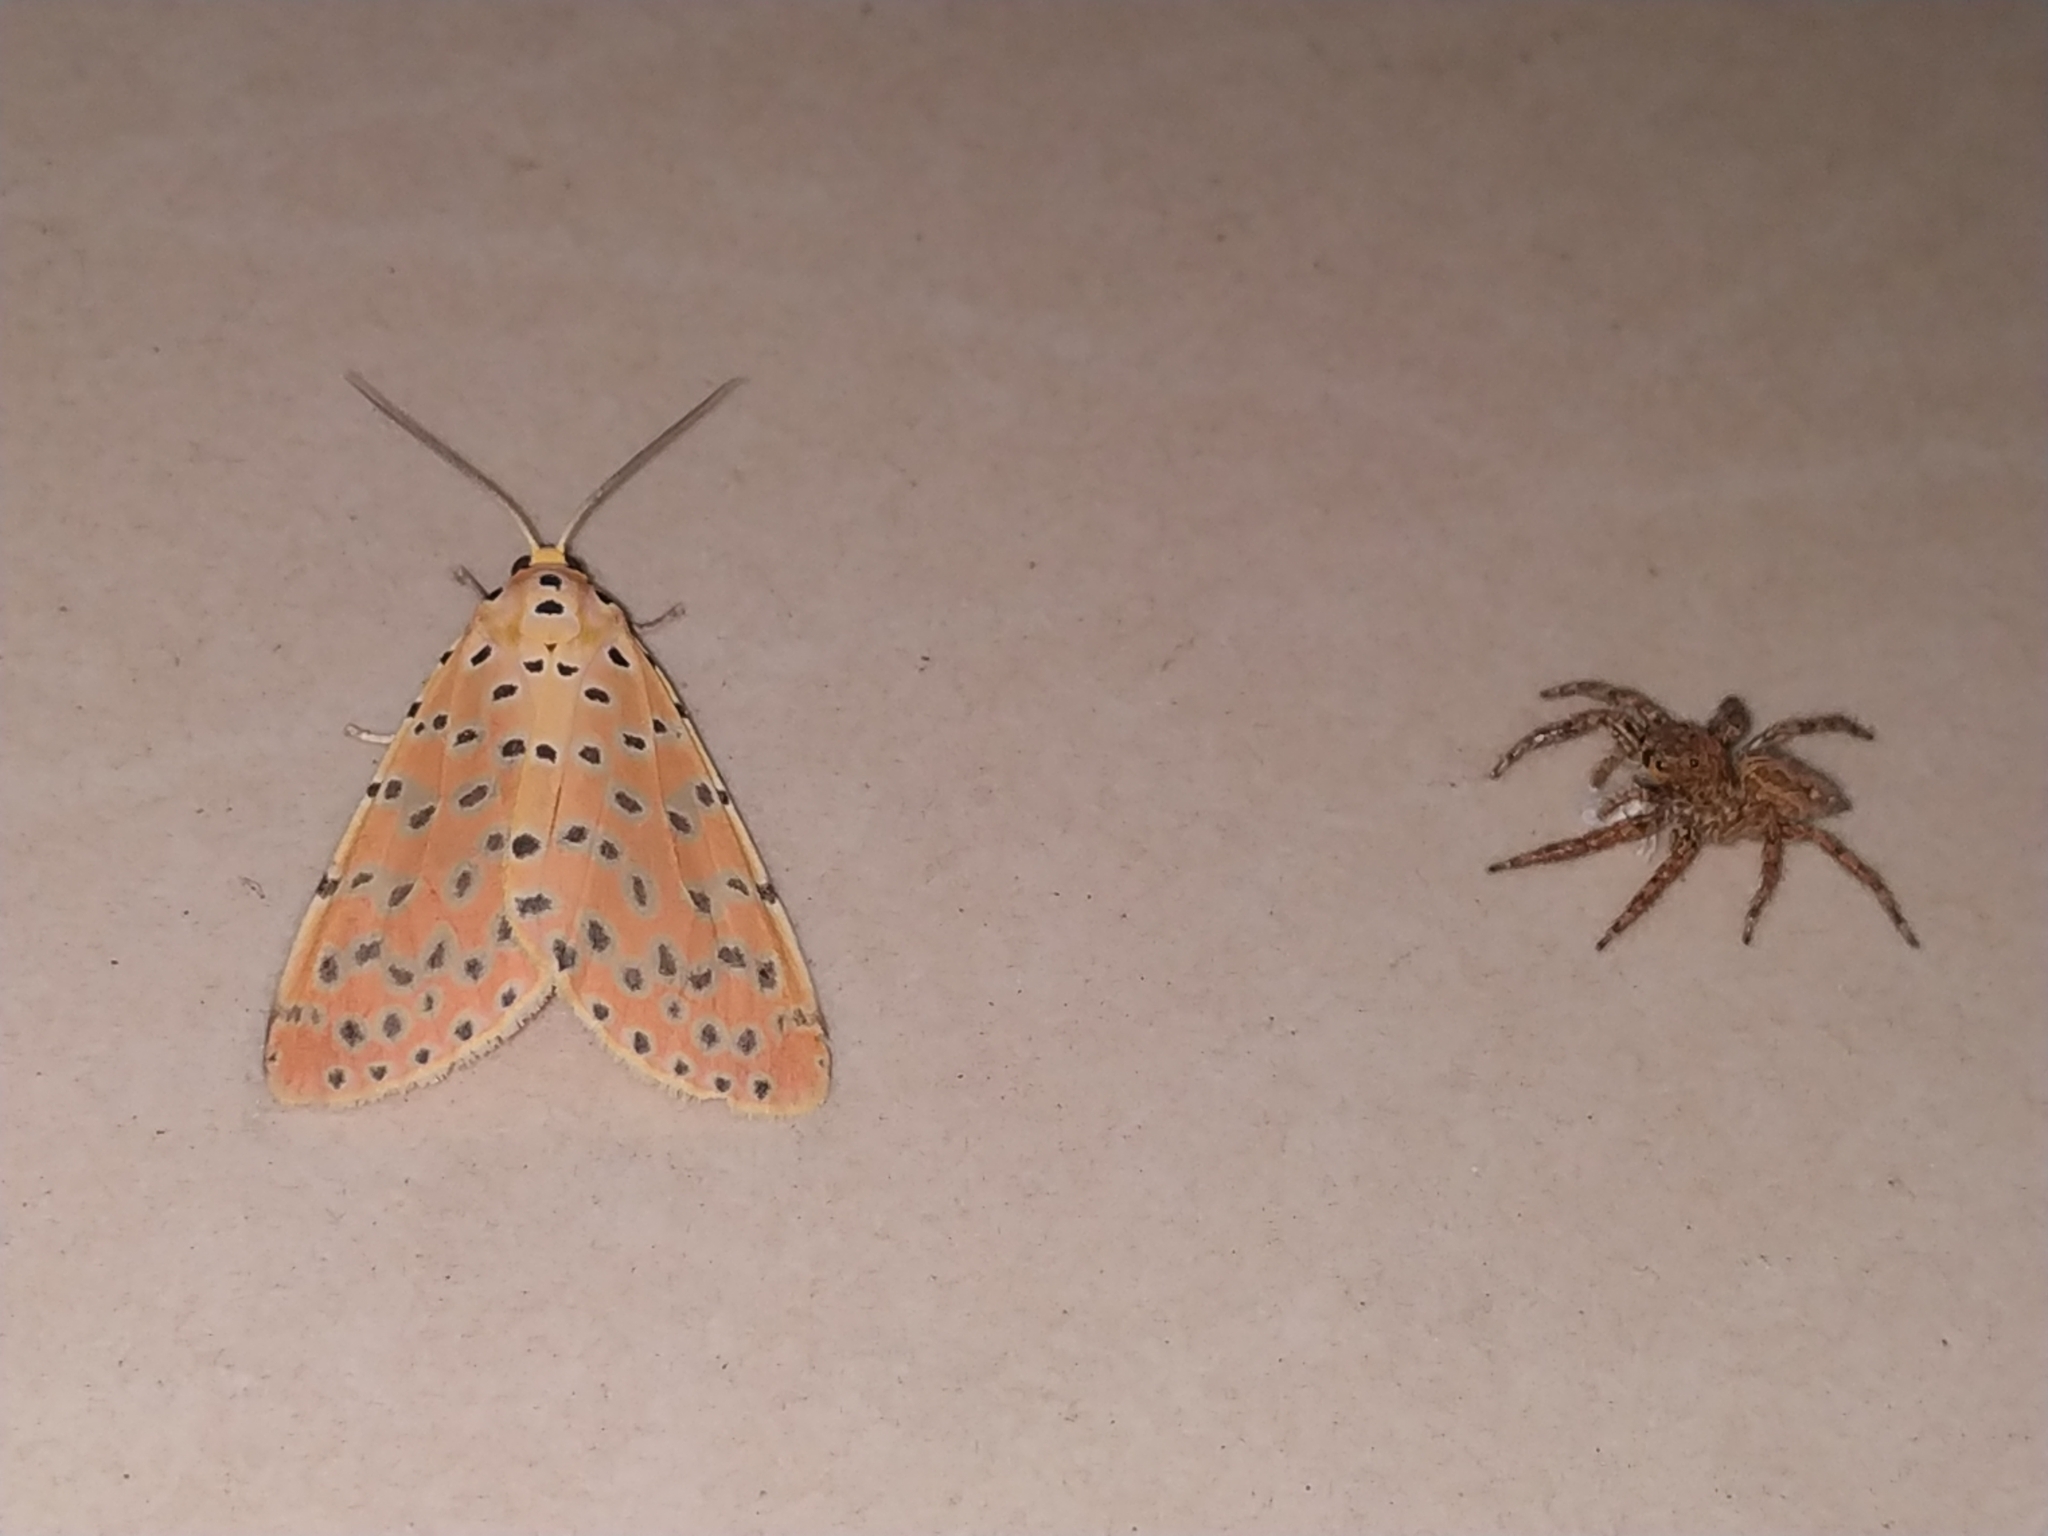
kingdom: Animalia
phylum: Arthropoda
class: Insecta
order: Lepidoptera
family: Erebidae
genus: Argina
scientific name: Argina astrea
